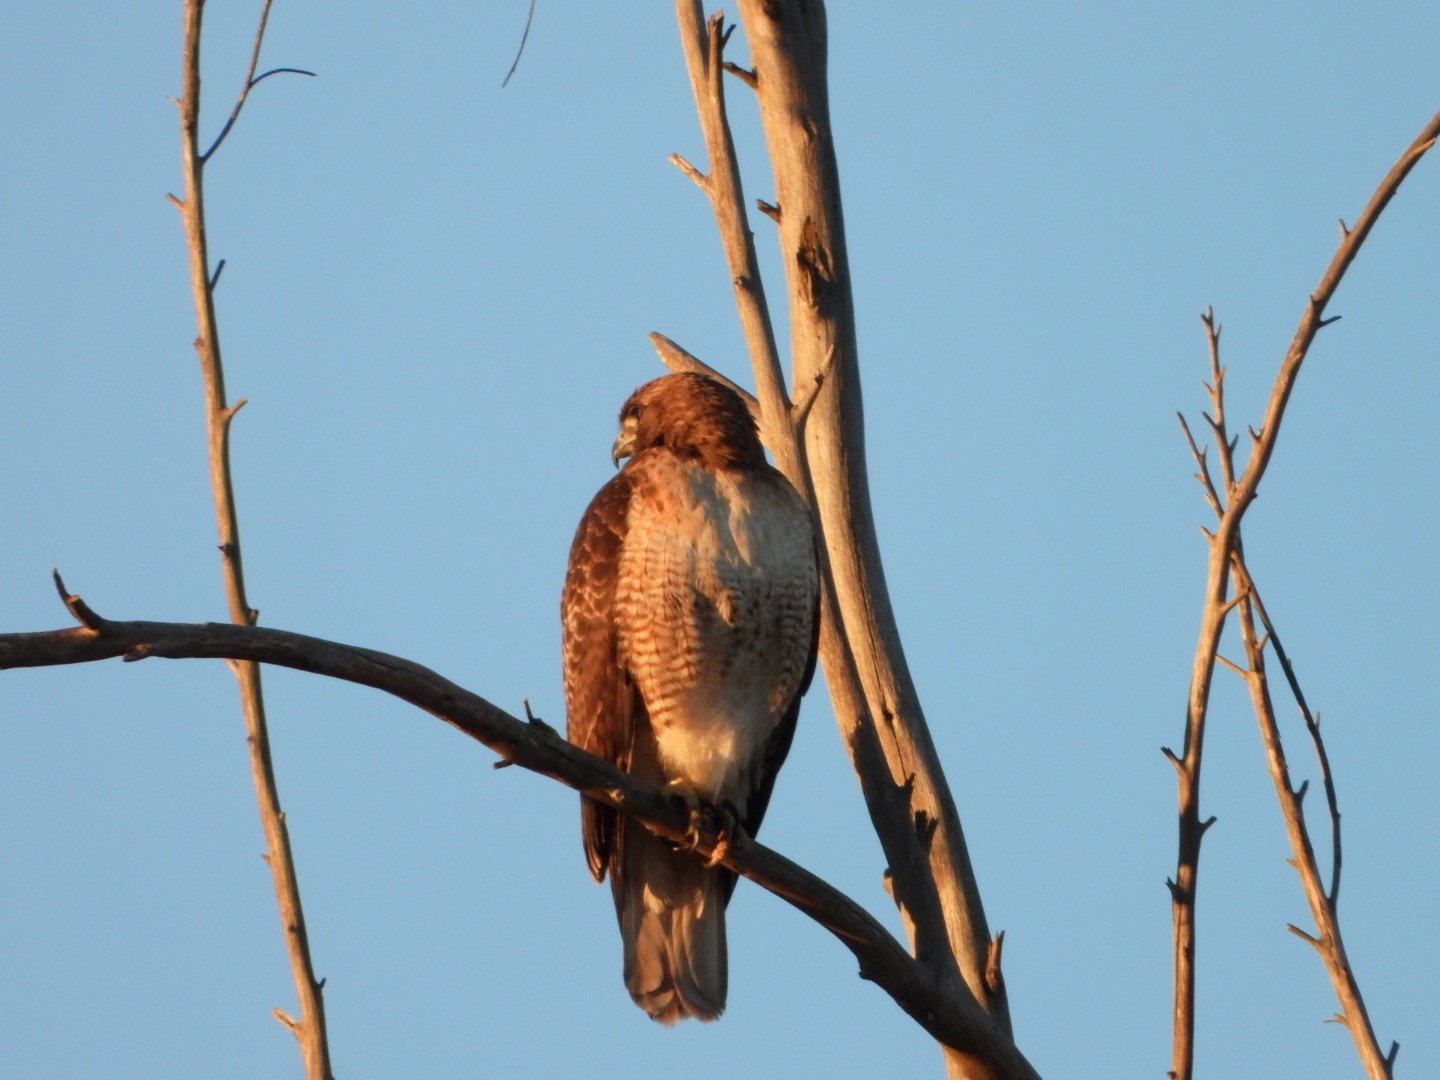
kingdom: Animalia
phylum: Chordata
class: Aves
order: Accipitriformes
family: Accipitridae
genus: Buteo
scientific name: Buteo jamaicensis
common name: Red-tailed hawk
